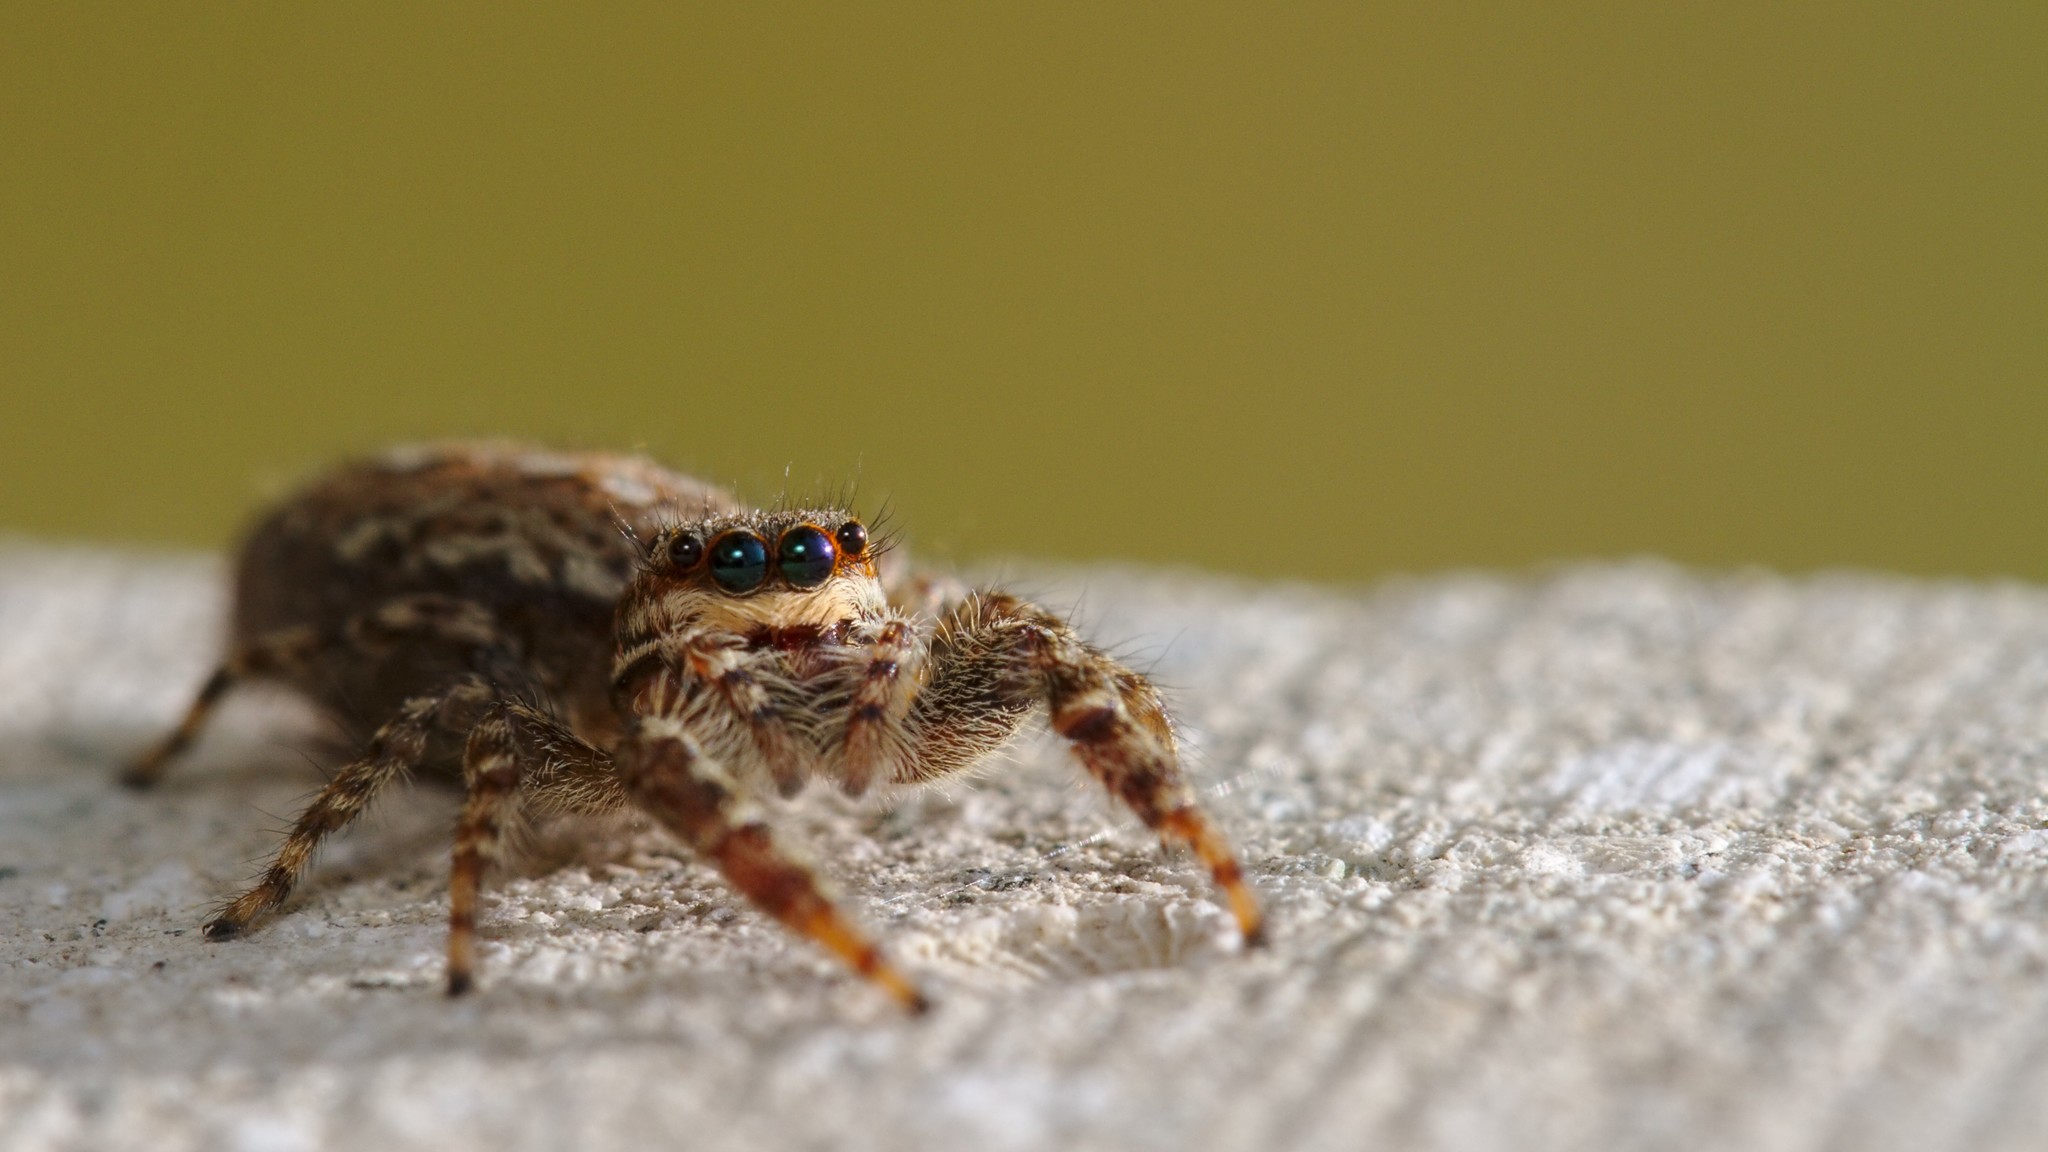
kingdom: Animalia
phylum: Arthropoda
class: Arachnida
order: Araneae
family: Salticidae
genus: Marpissa
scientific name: Marpissa muscosa
